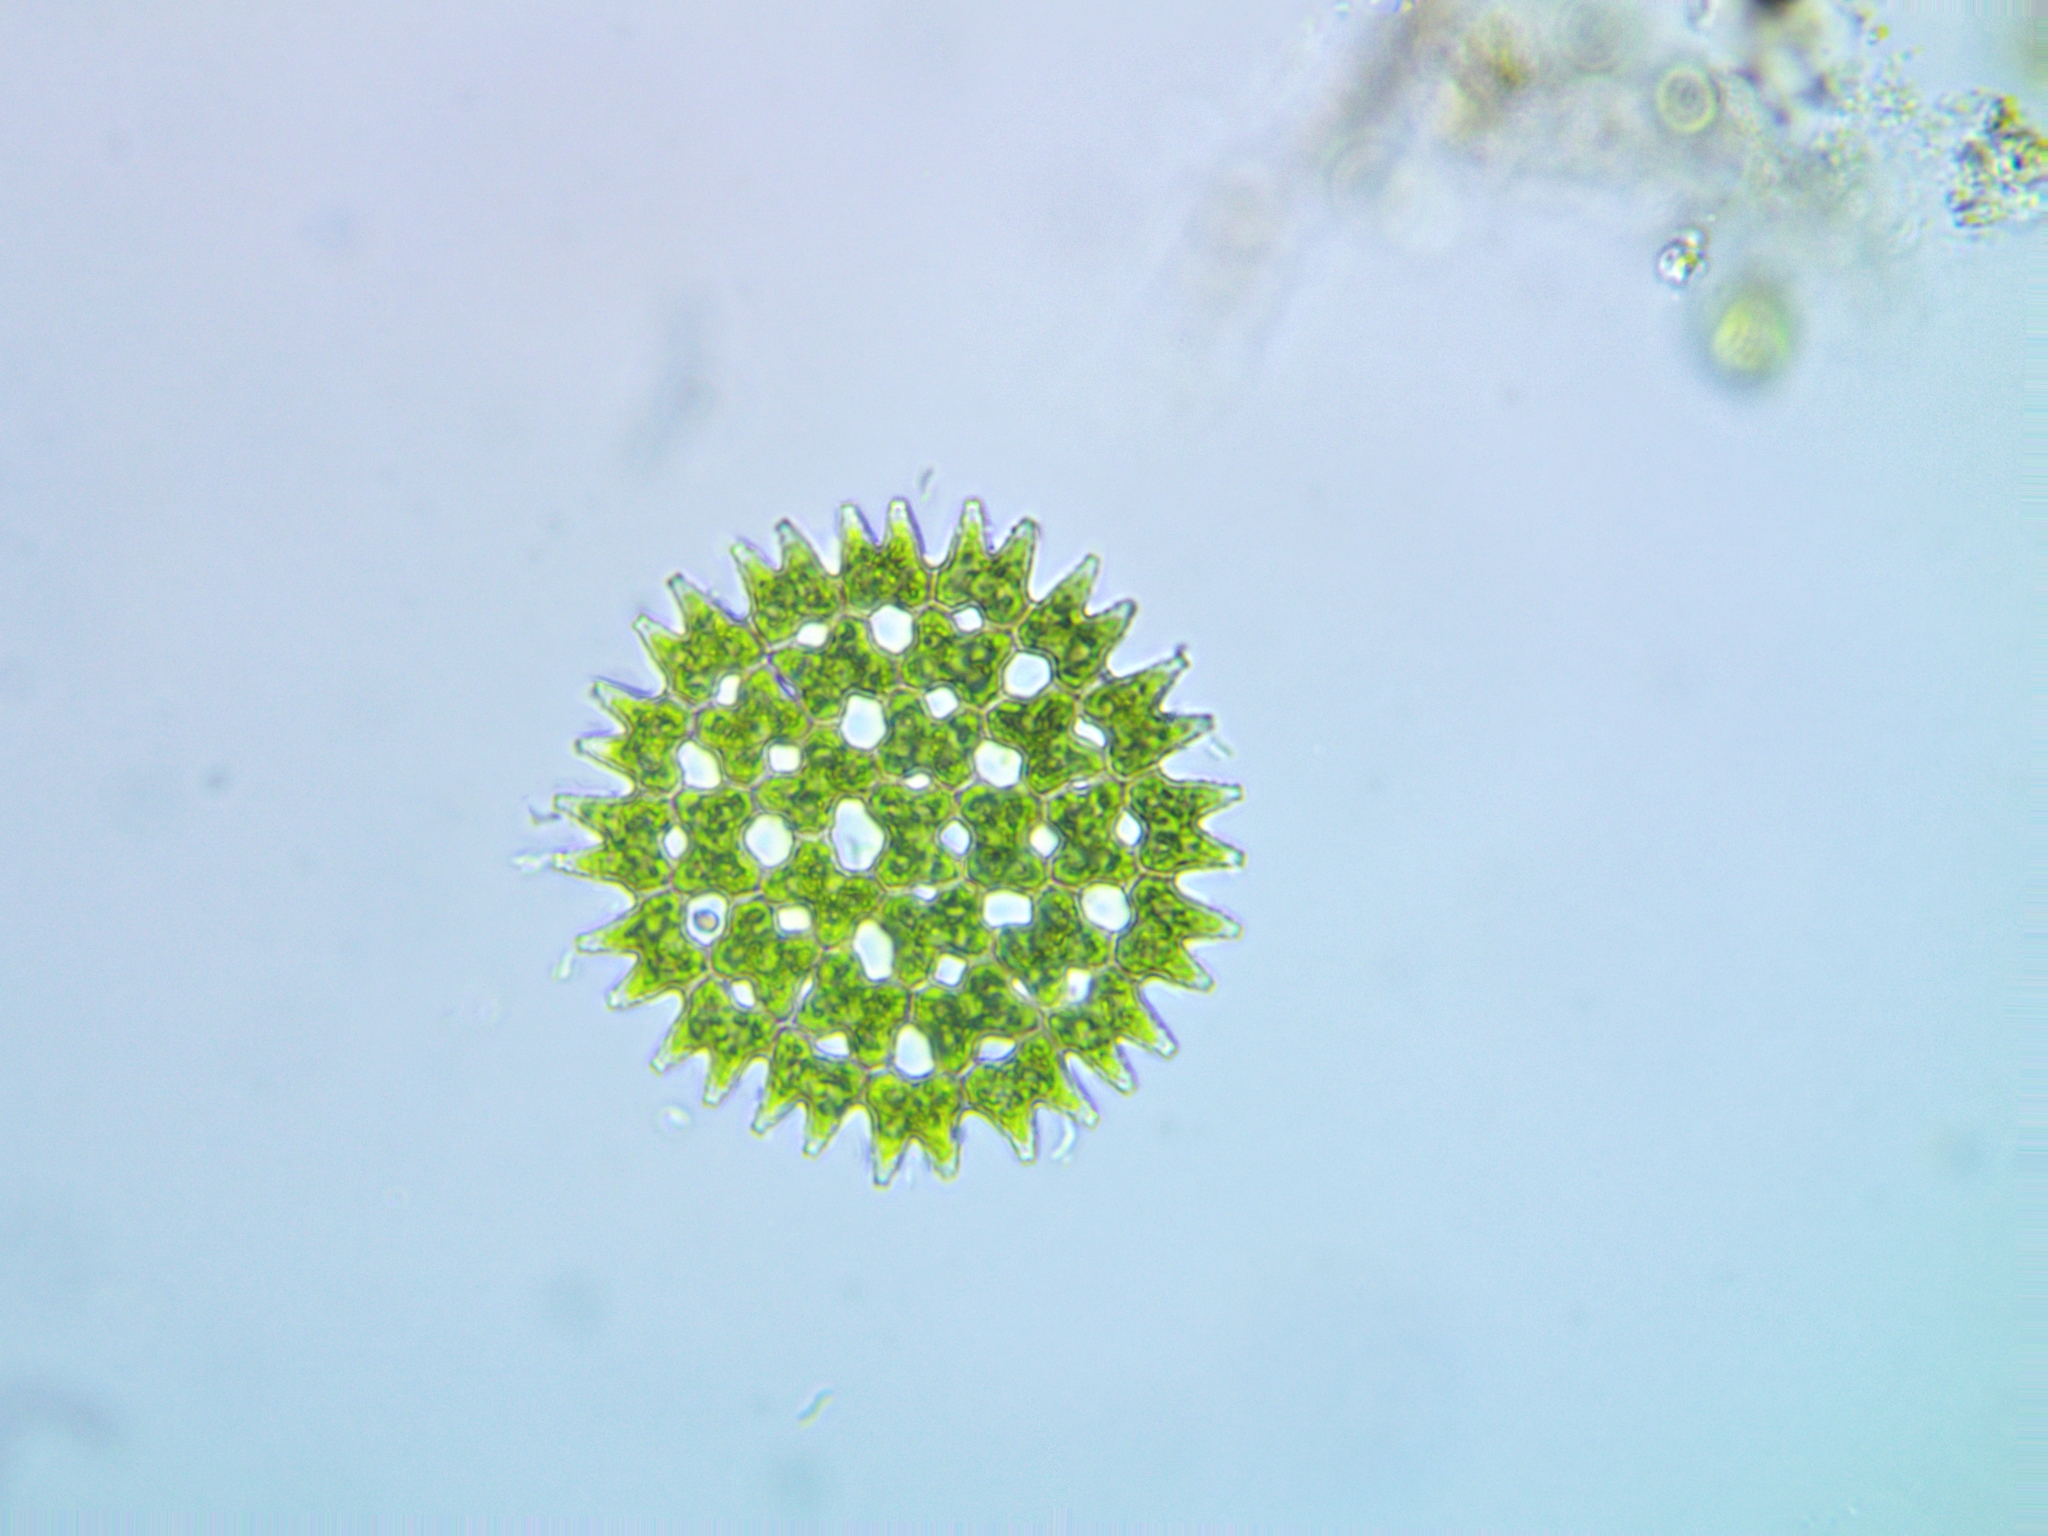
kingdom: Plantae
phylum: Chlorophyta
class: Chlorophyceae
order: Sphaeropleales
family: Hydrodictyaceae
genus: Pediastrum
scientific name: Pediastrum duplex
